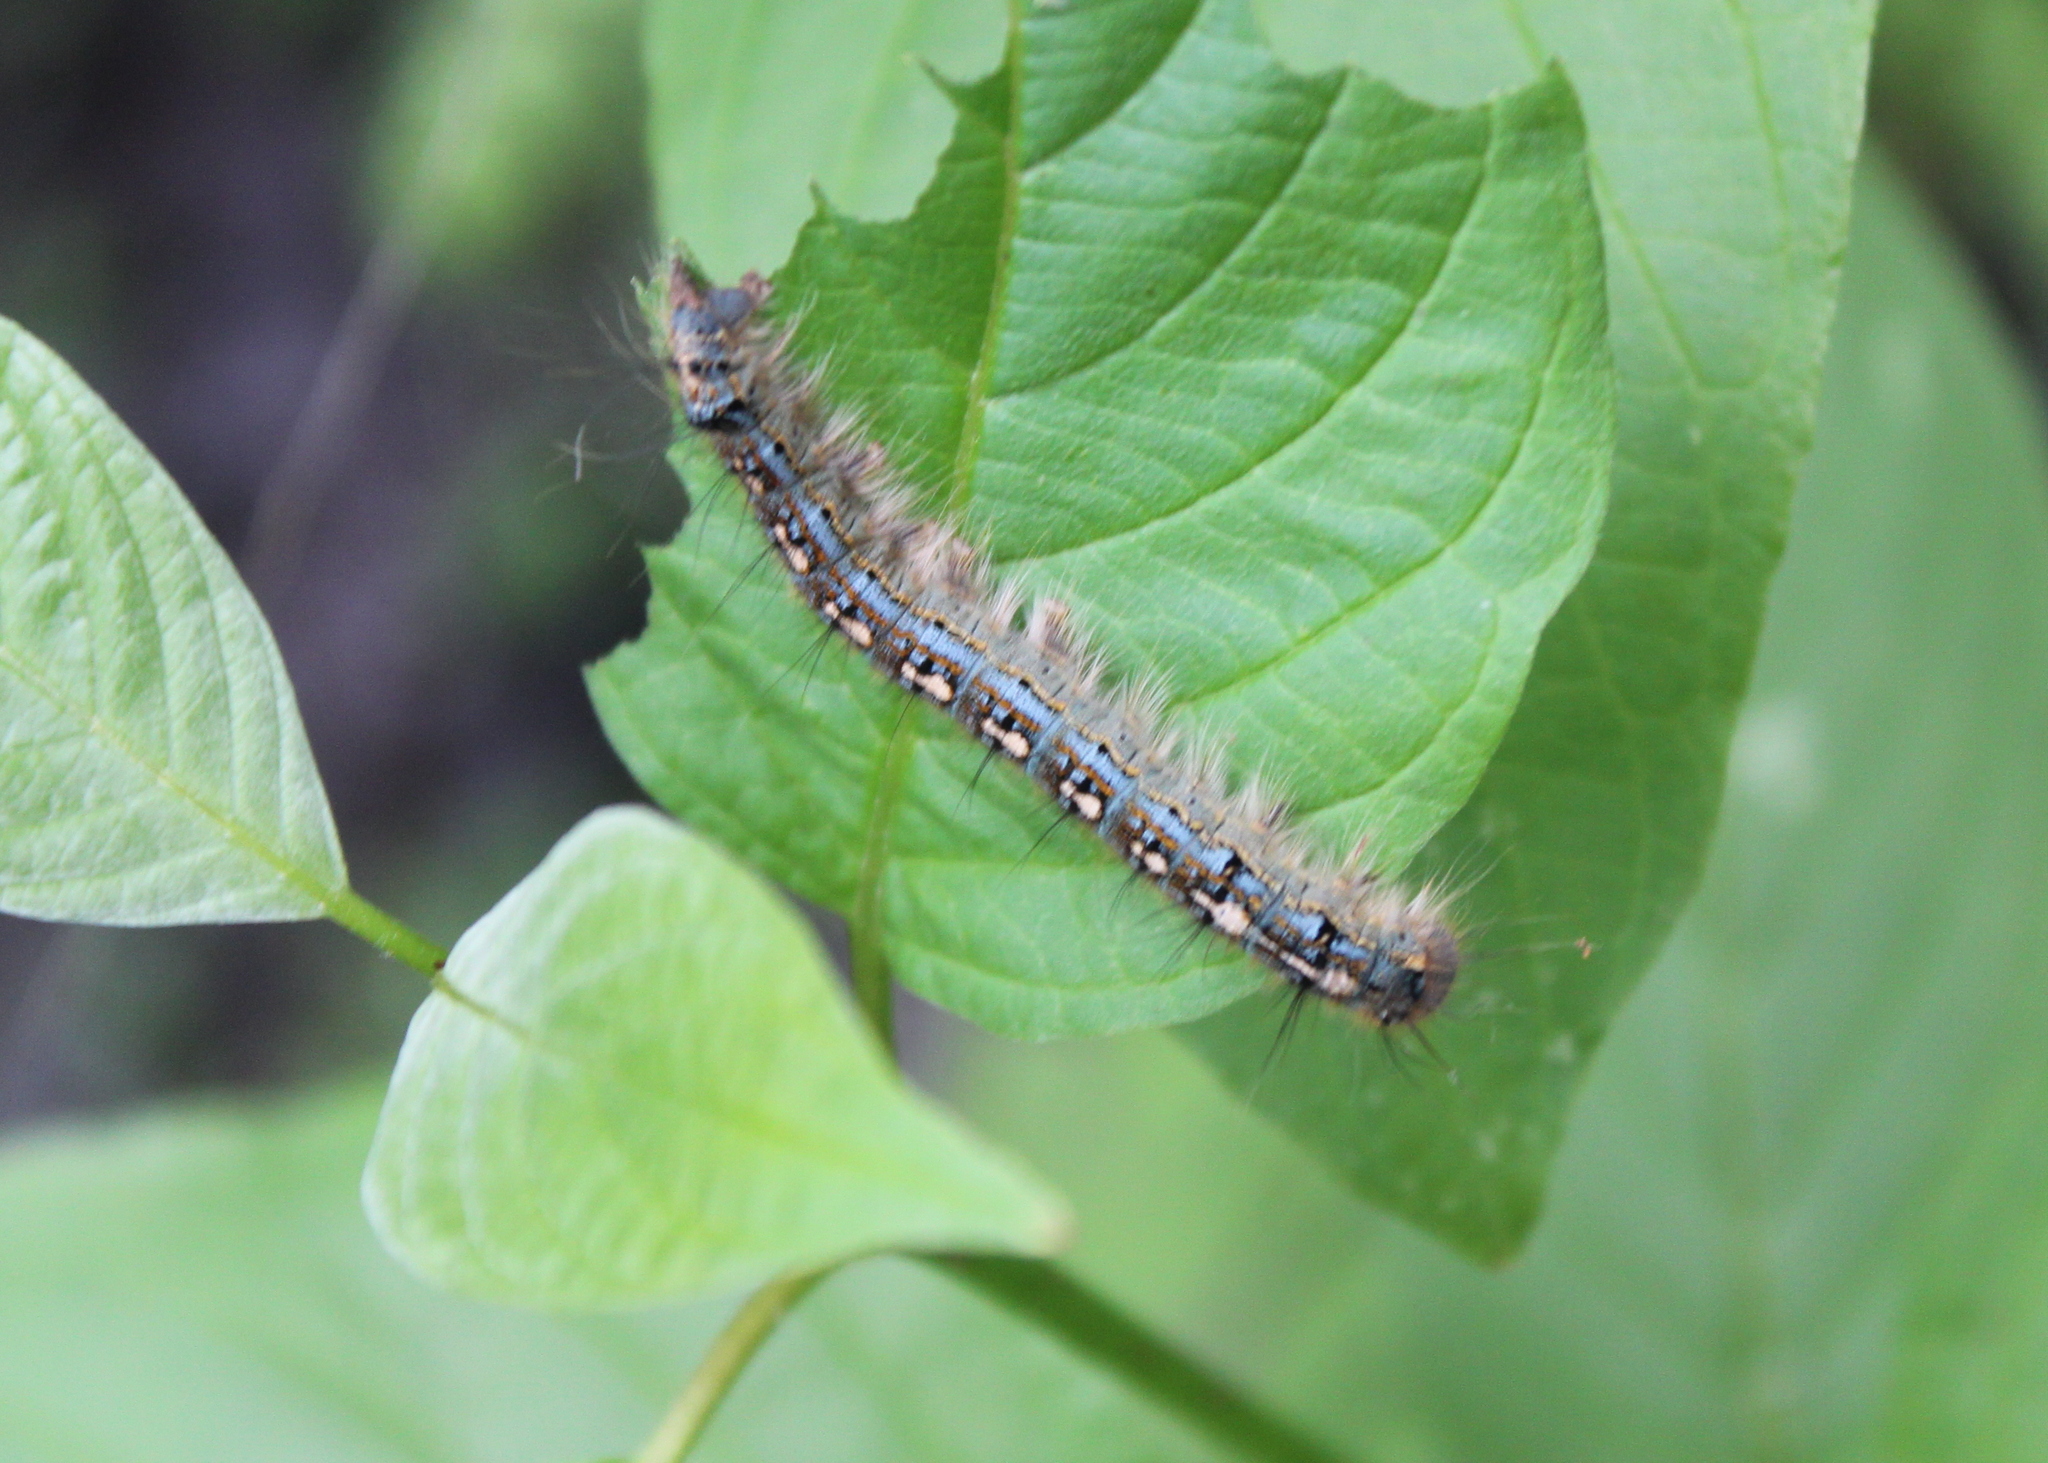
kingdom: Animalia
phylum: Arthropoda
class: Insecta
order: Lepidoptera
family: Lasiocampidae
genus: Malacosoma
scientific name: Malacosoma disstria
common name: Forest tent caterpillar
